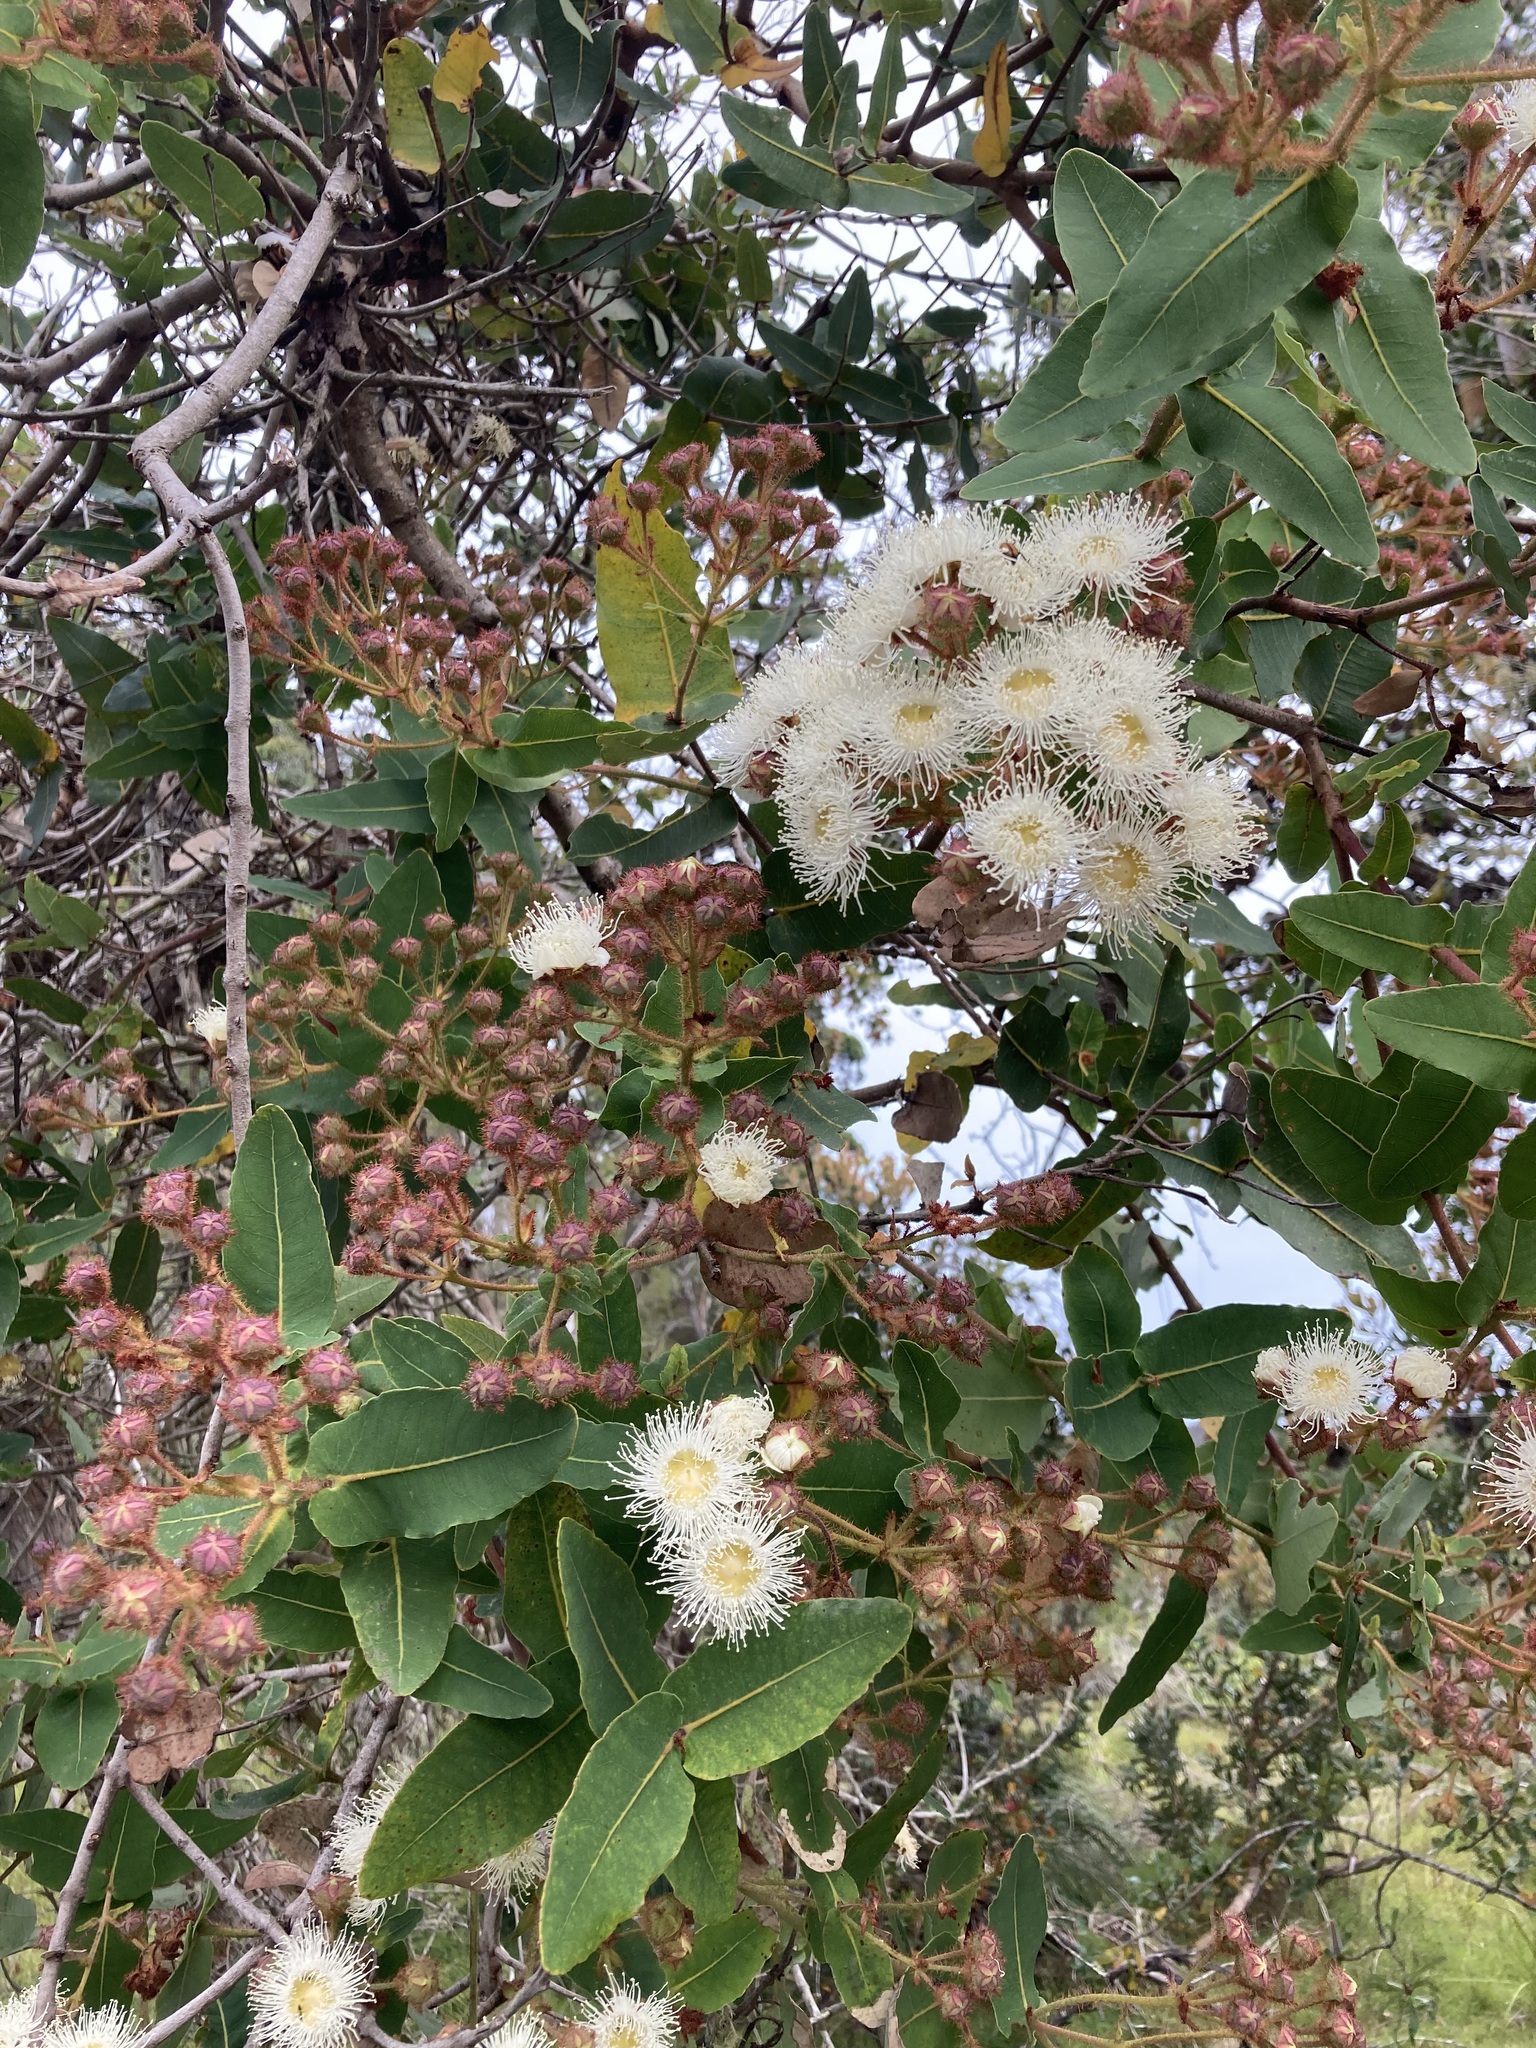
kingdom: Plantae
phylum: Tracheophyta
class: Magnoliopsida
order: Myrtales
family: Myrtaceae
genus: Angophora
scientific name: Angophora hispida
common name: Dwarf-apple
